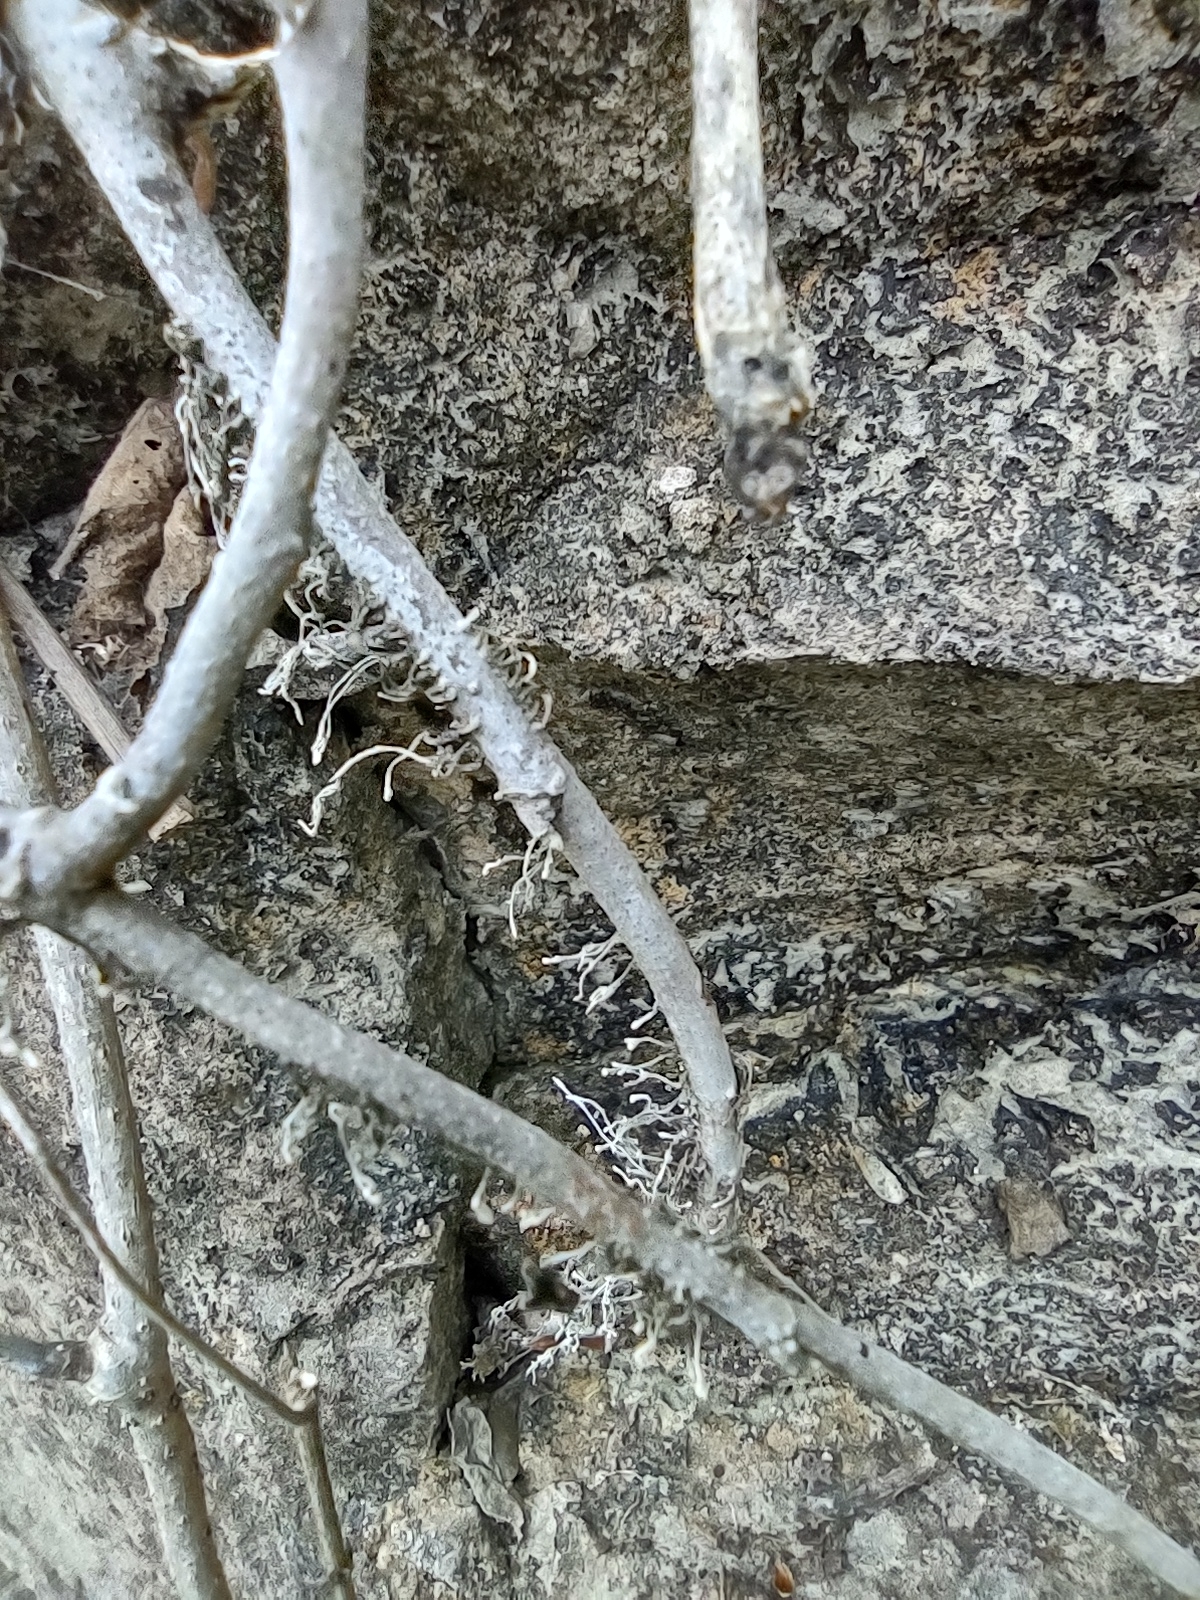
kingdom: Plantae
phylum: Tracheophyta
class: Magnoliopsida
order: Sapindales
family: Anacardiaceae
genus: Toxicodendron
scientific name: Toxicodendron radicans
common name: Poison ivy
